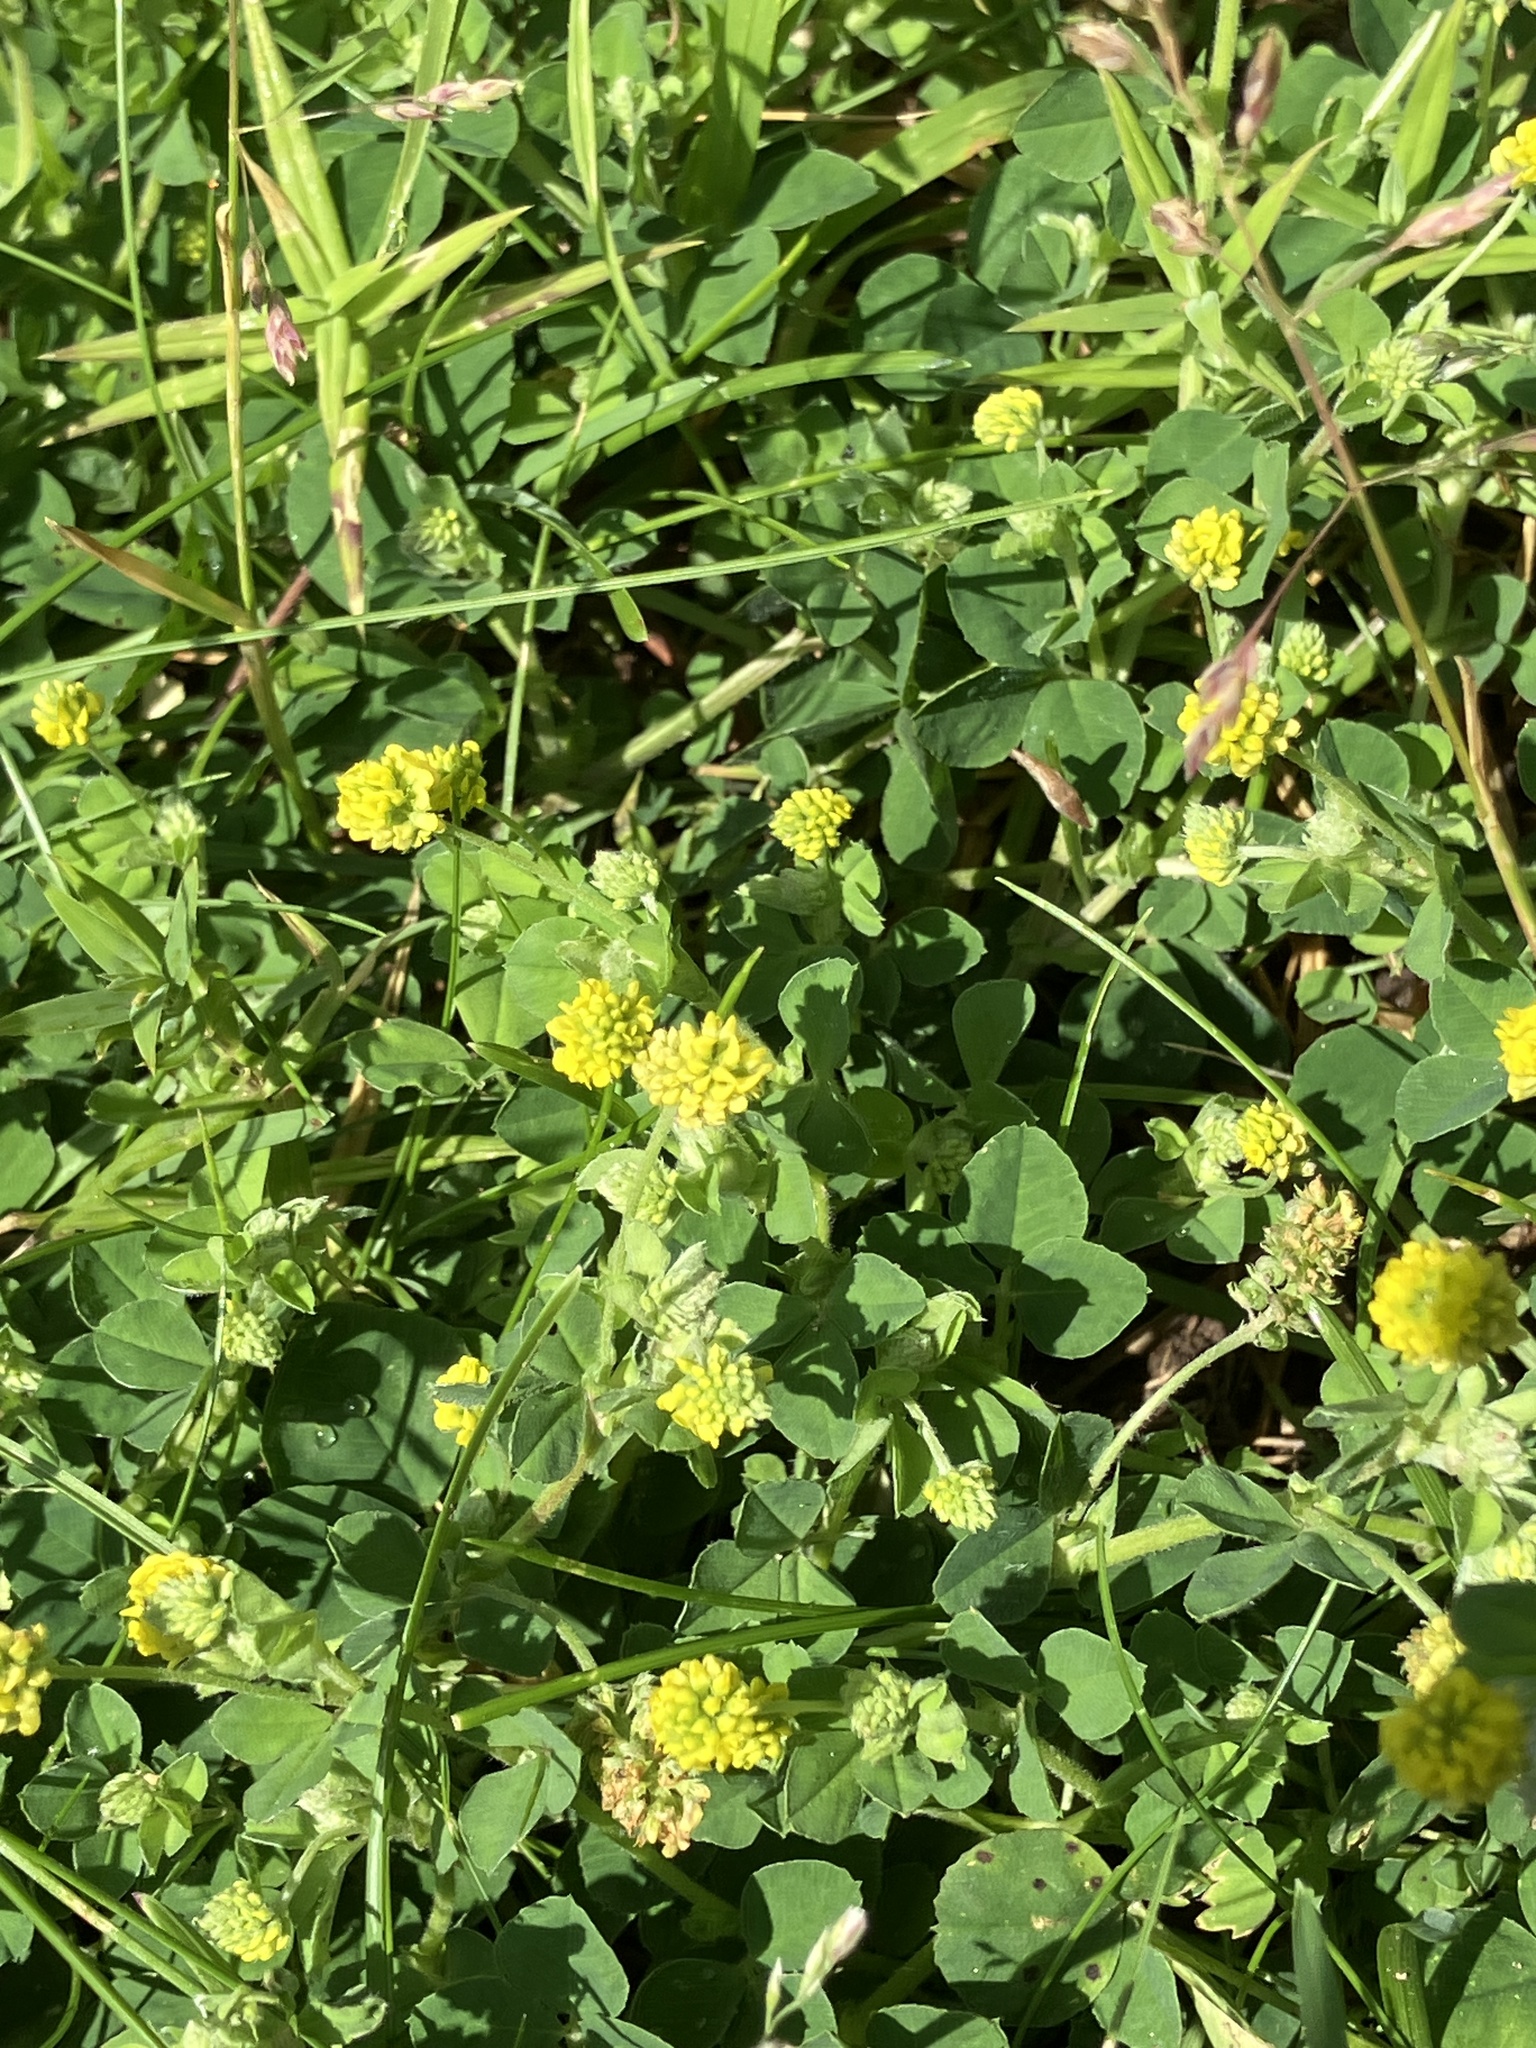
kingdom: Plantae
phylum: Tracheophyta
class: Magnoliopsida
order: Fabales
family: Fabaceae
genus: Medicago
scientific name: Medicago lupulina
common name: Black medick
